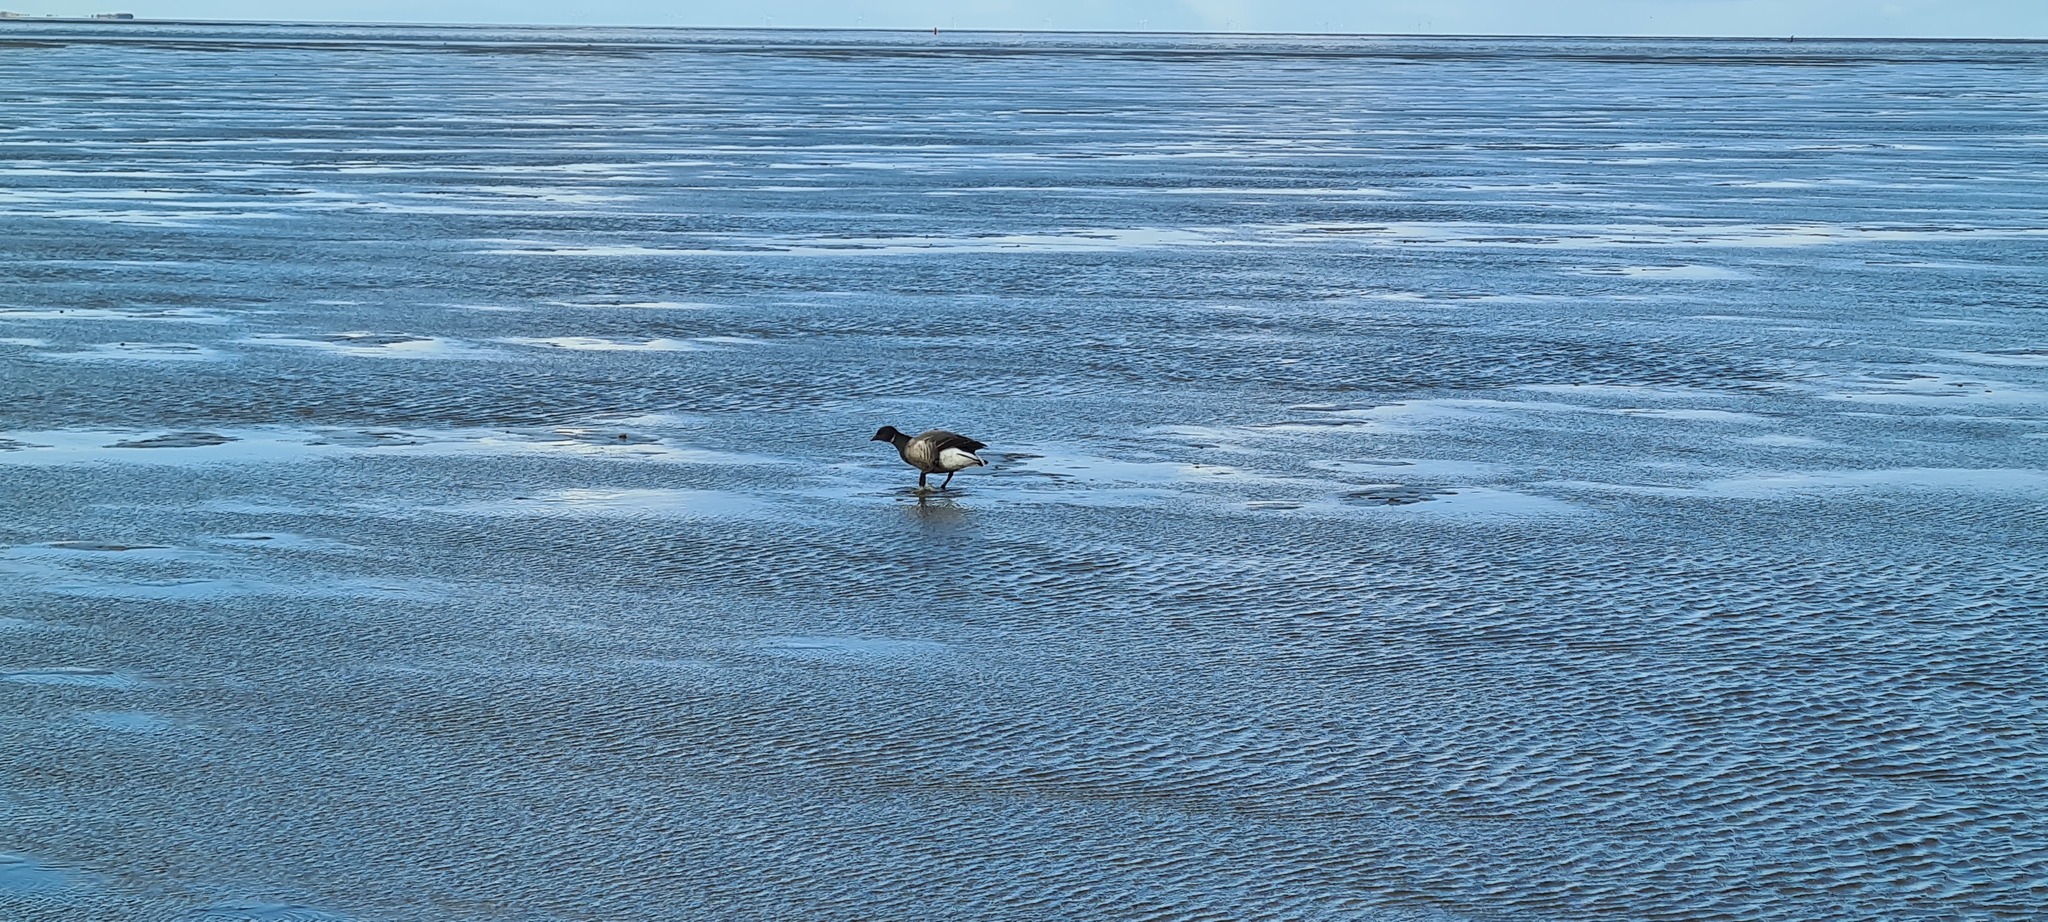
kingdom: Animalia
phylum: Chordata
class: Aves
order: Anseriformes
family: Anatidae
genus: Branta
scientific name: Branta bernicla
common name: Brant goose
